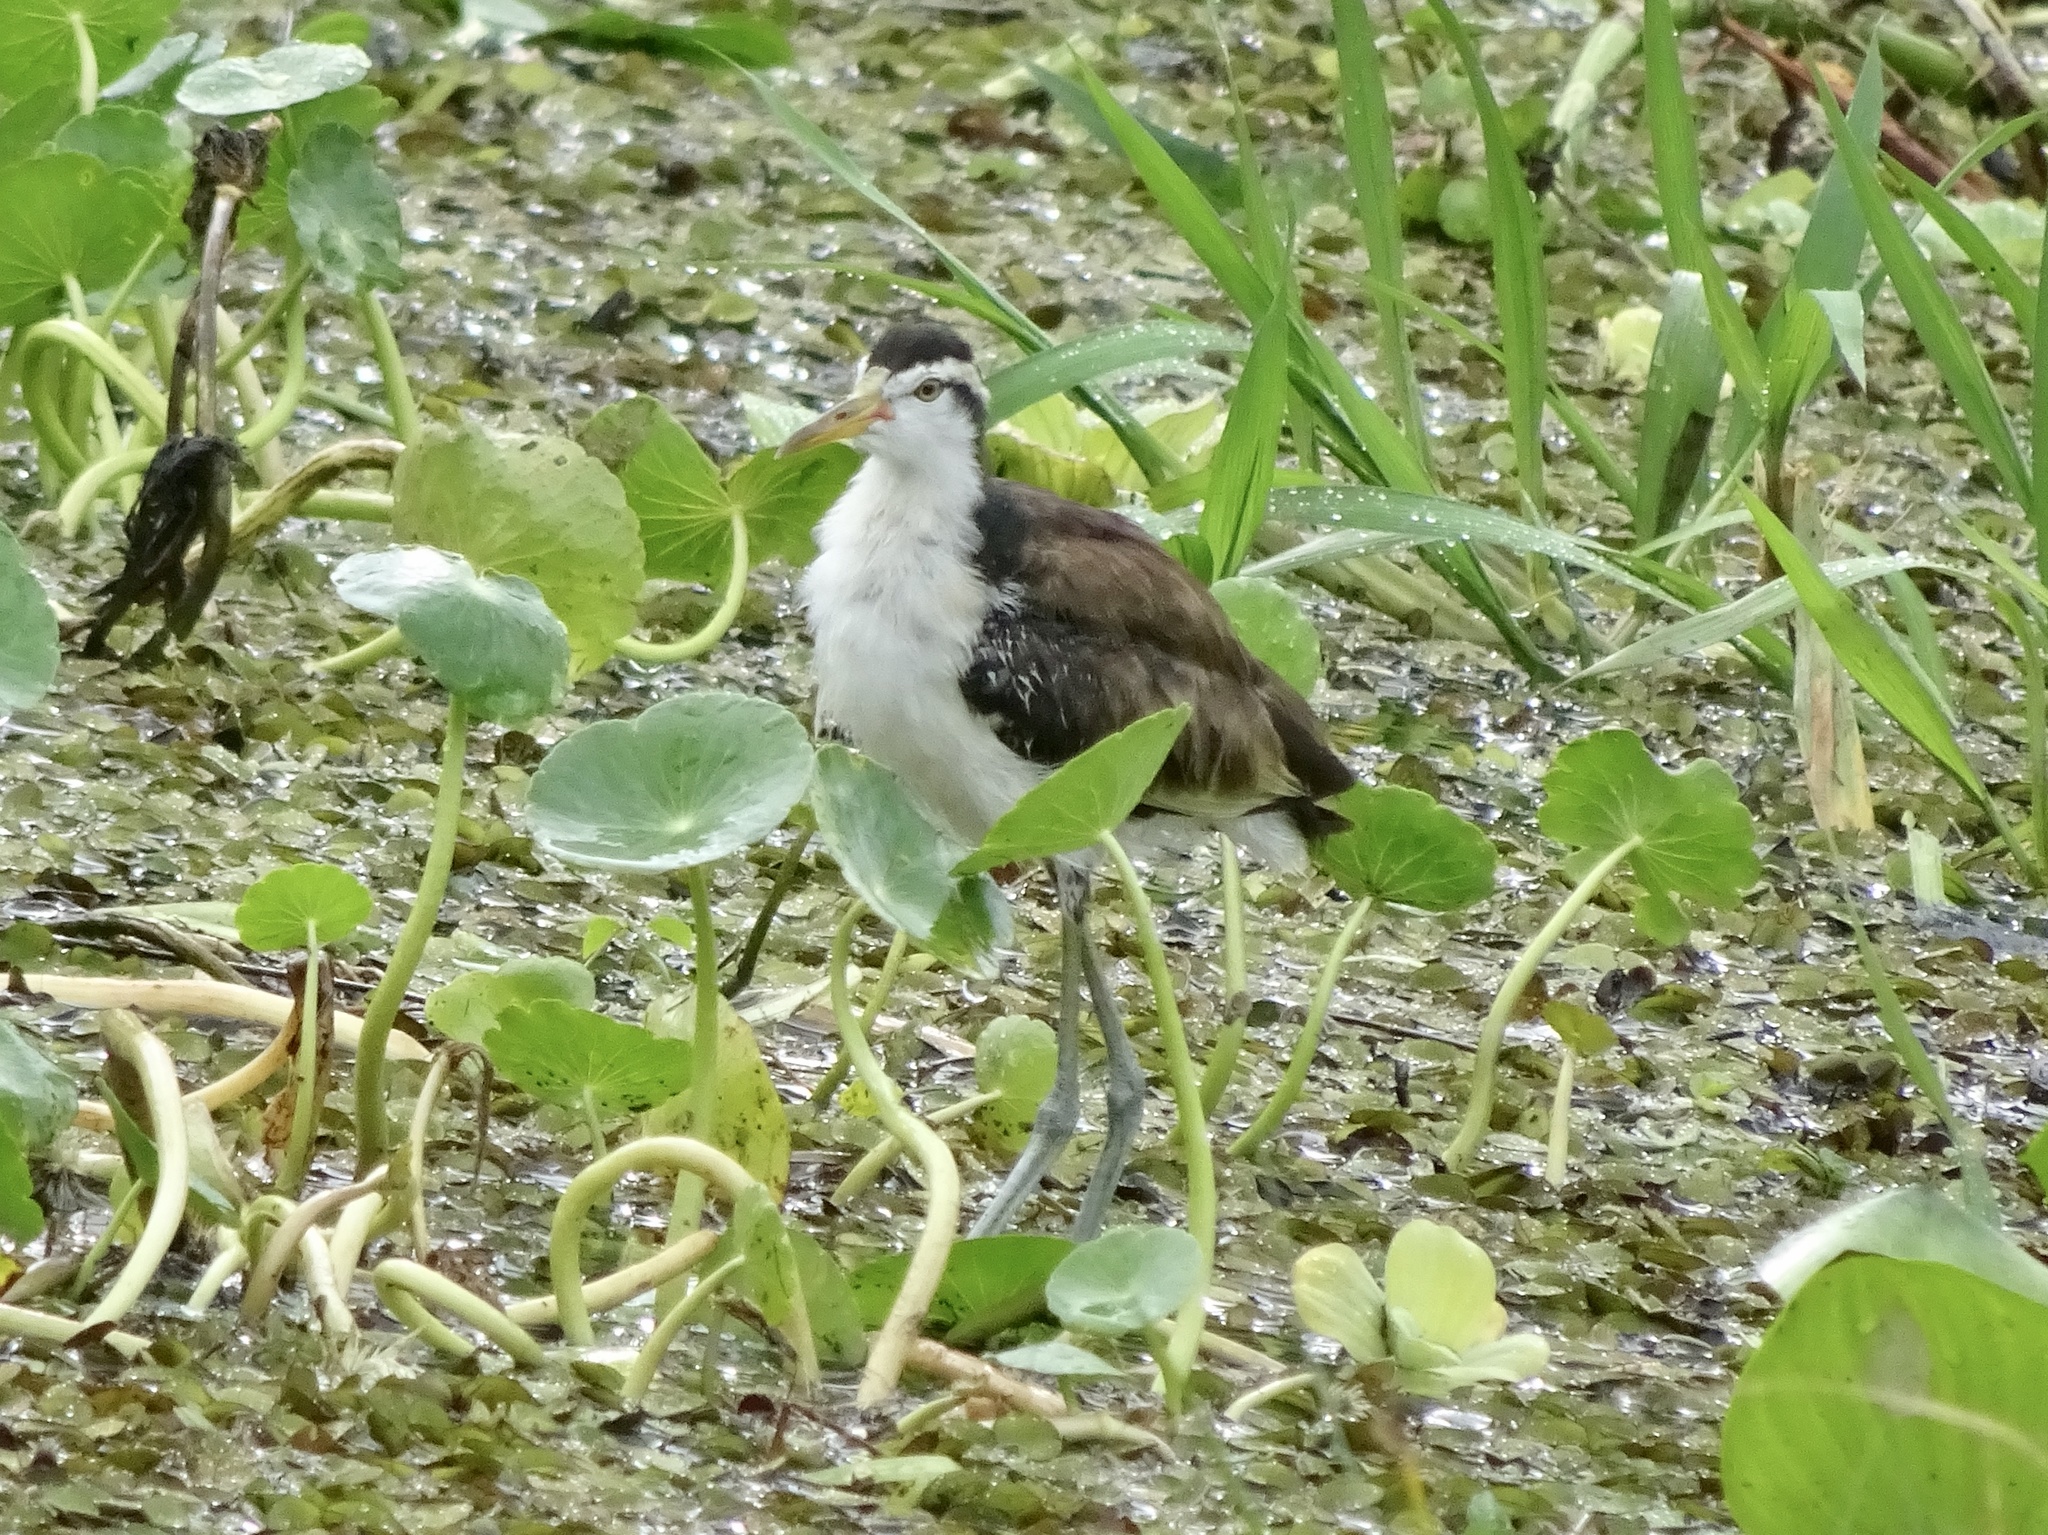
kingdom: Animalia
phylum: Chordata
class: Aves
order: Charadriiformes
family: Jacanidae
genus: Jacana
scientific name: Jacana jacana
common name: Wattled jacana
